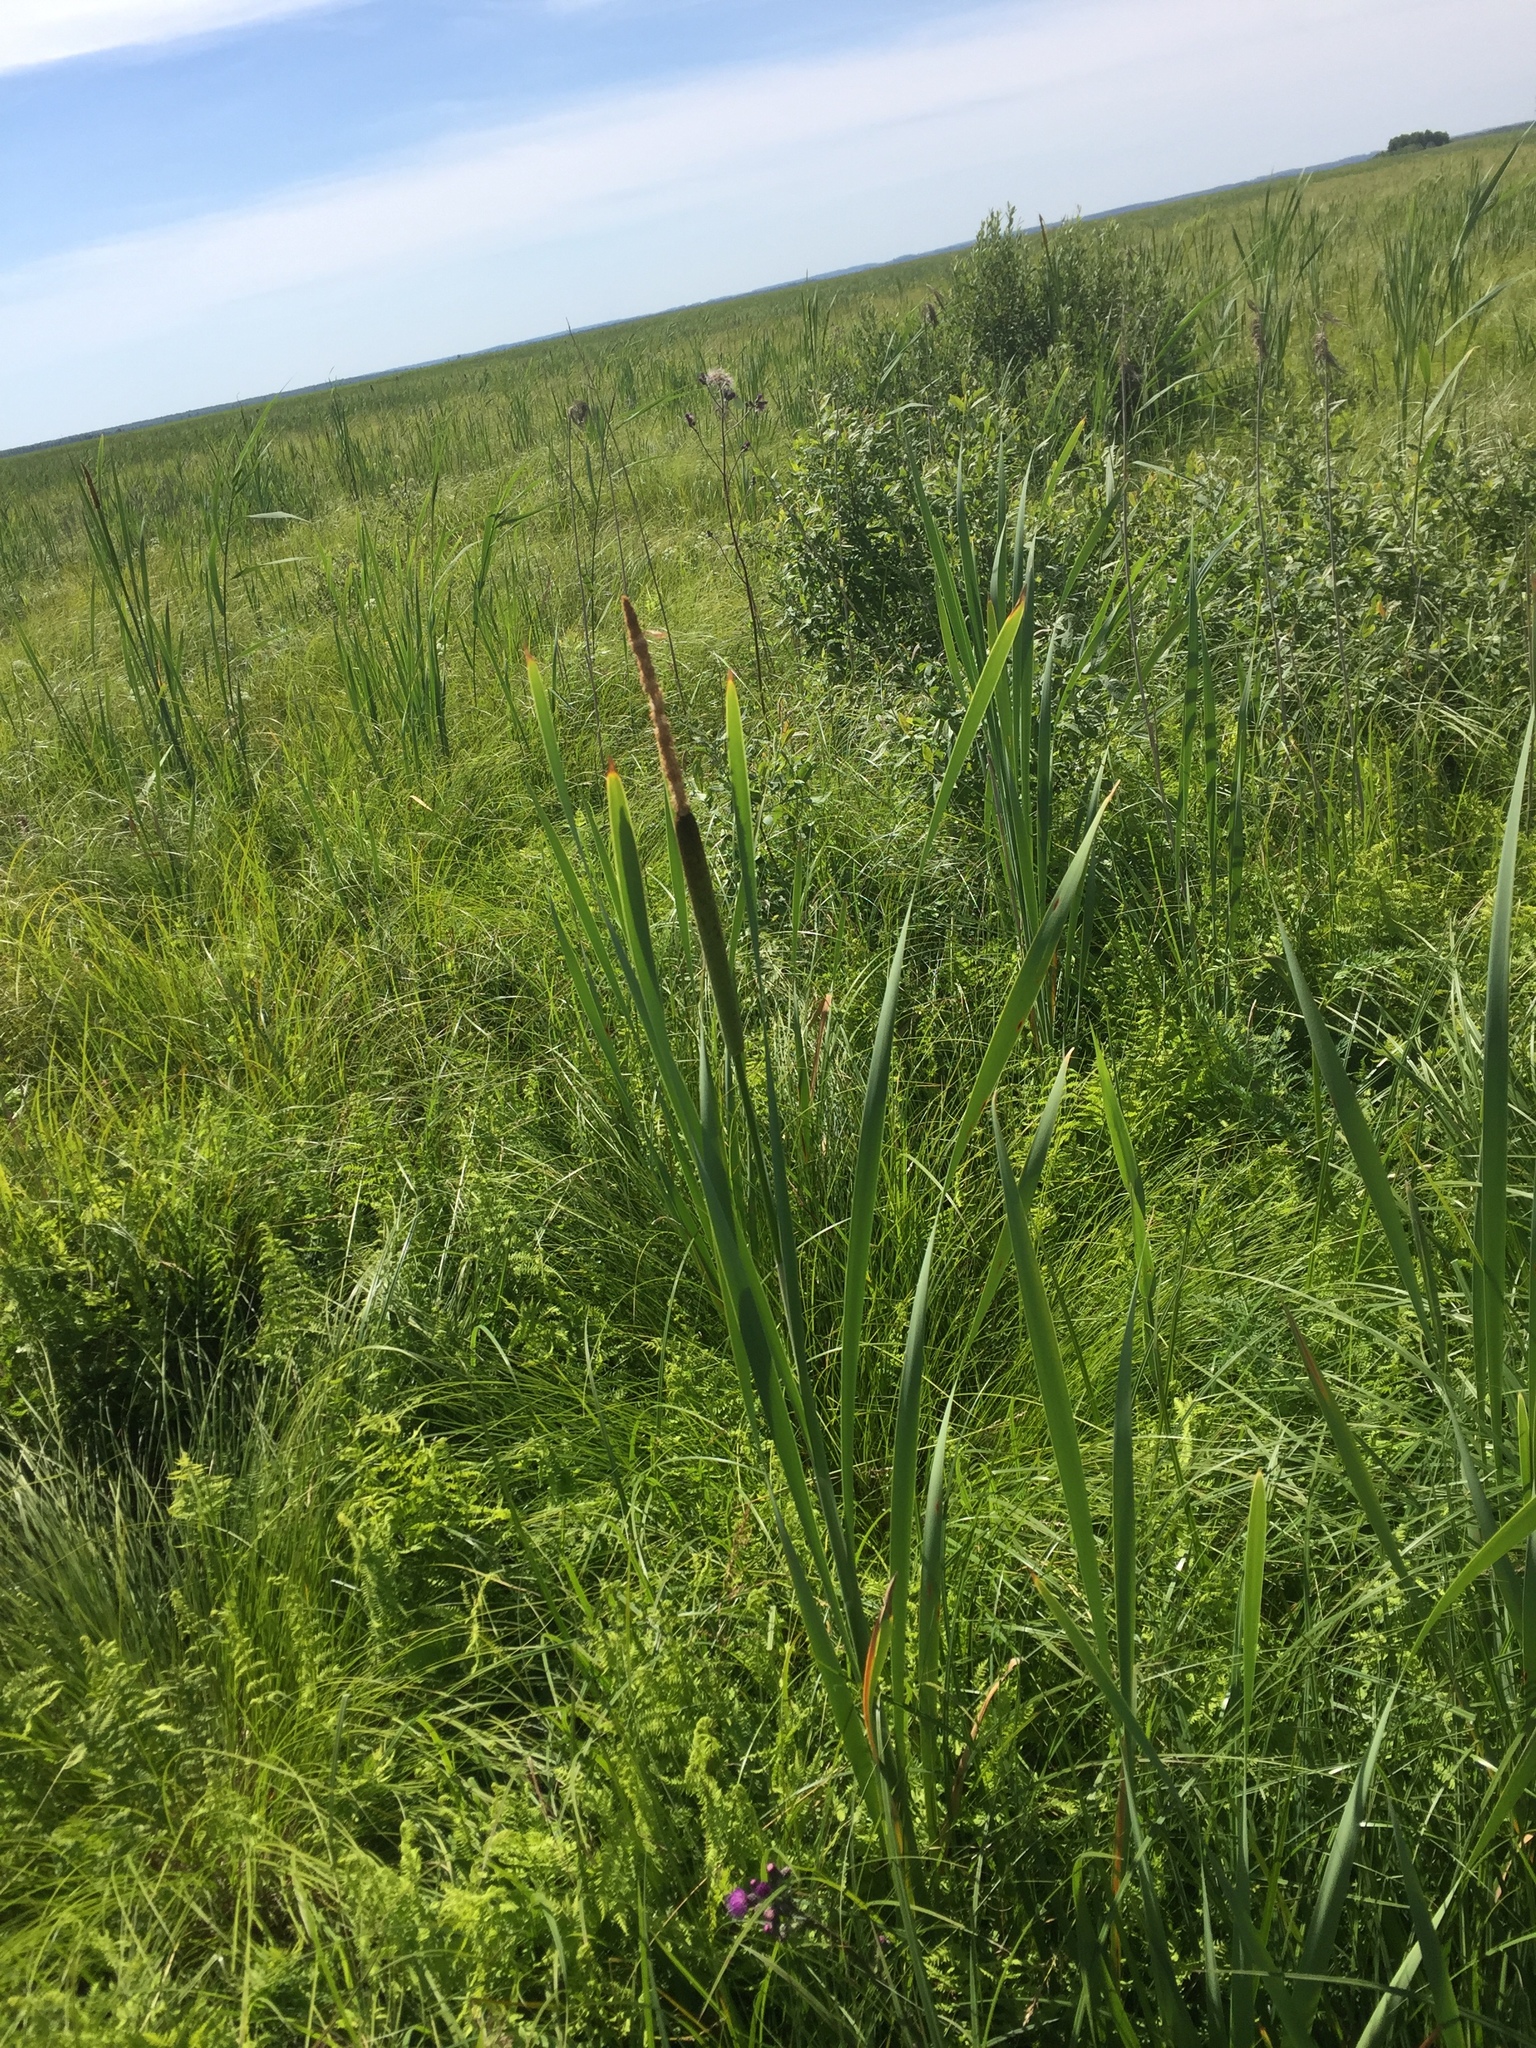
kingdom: Plantae
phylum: Tracheophyta
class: Liliopsida
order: Poales
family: Typhaceae
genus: Typha
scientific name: Typha latifolia
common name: Broadleaf cattail
